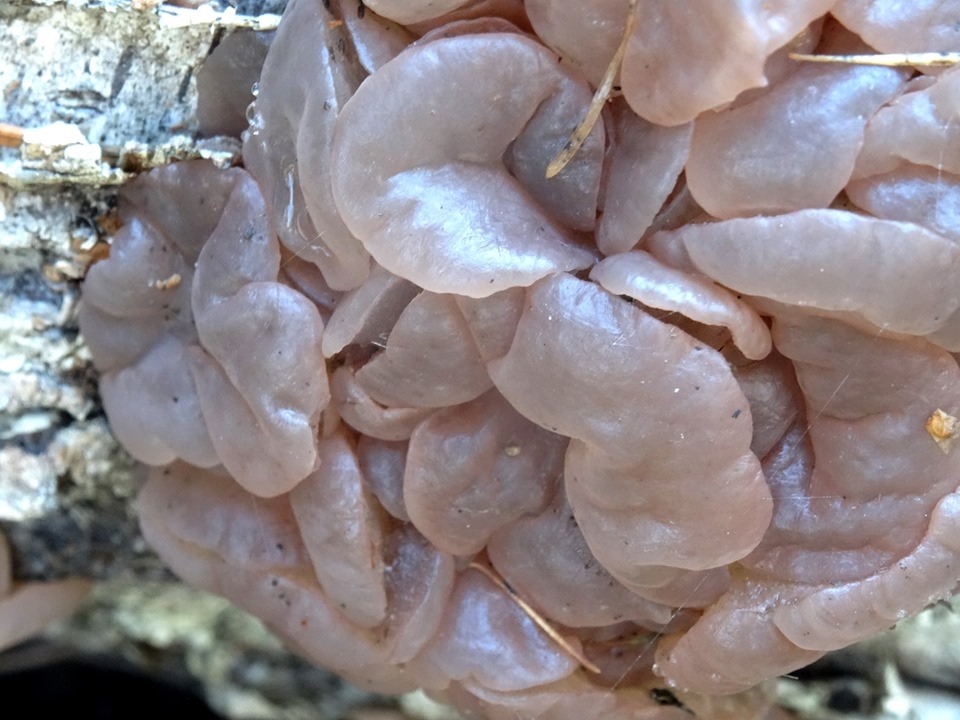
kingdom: Fungi
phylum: Ascomycota
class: Leotiomycetes
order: Helotiales
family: Gelatinodiscaceae
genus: Neobulgaria
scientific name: Neobulgaria pura
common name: Beech jelly-disc
